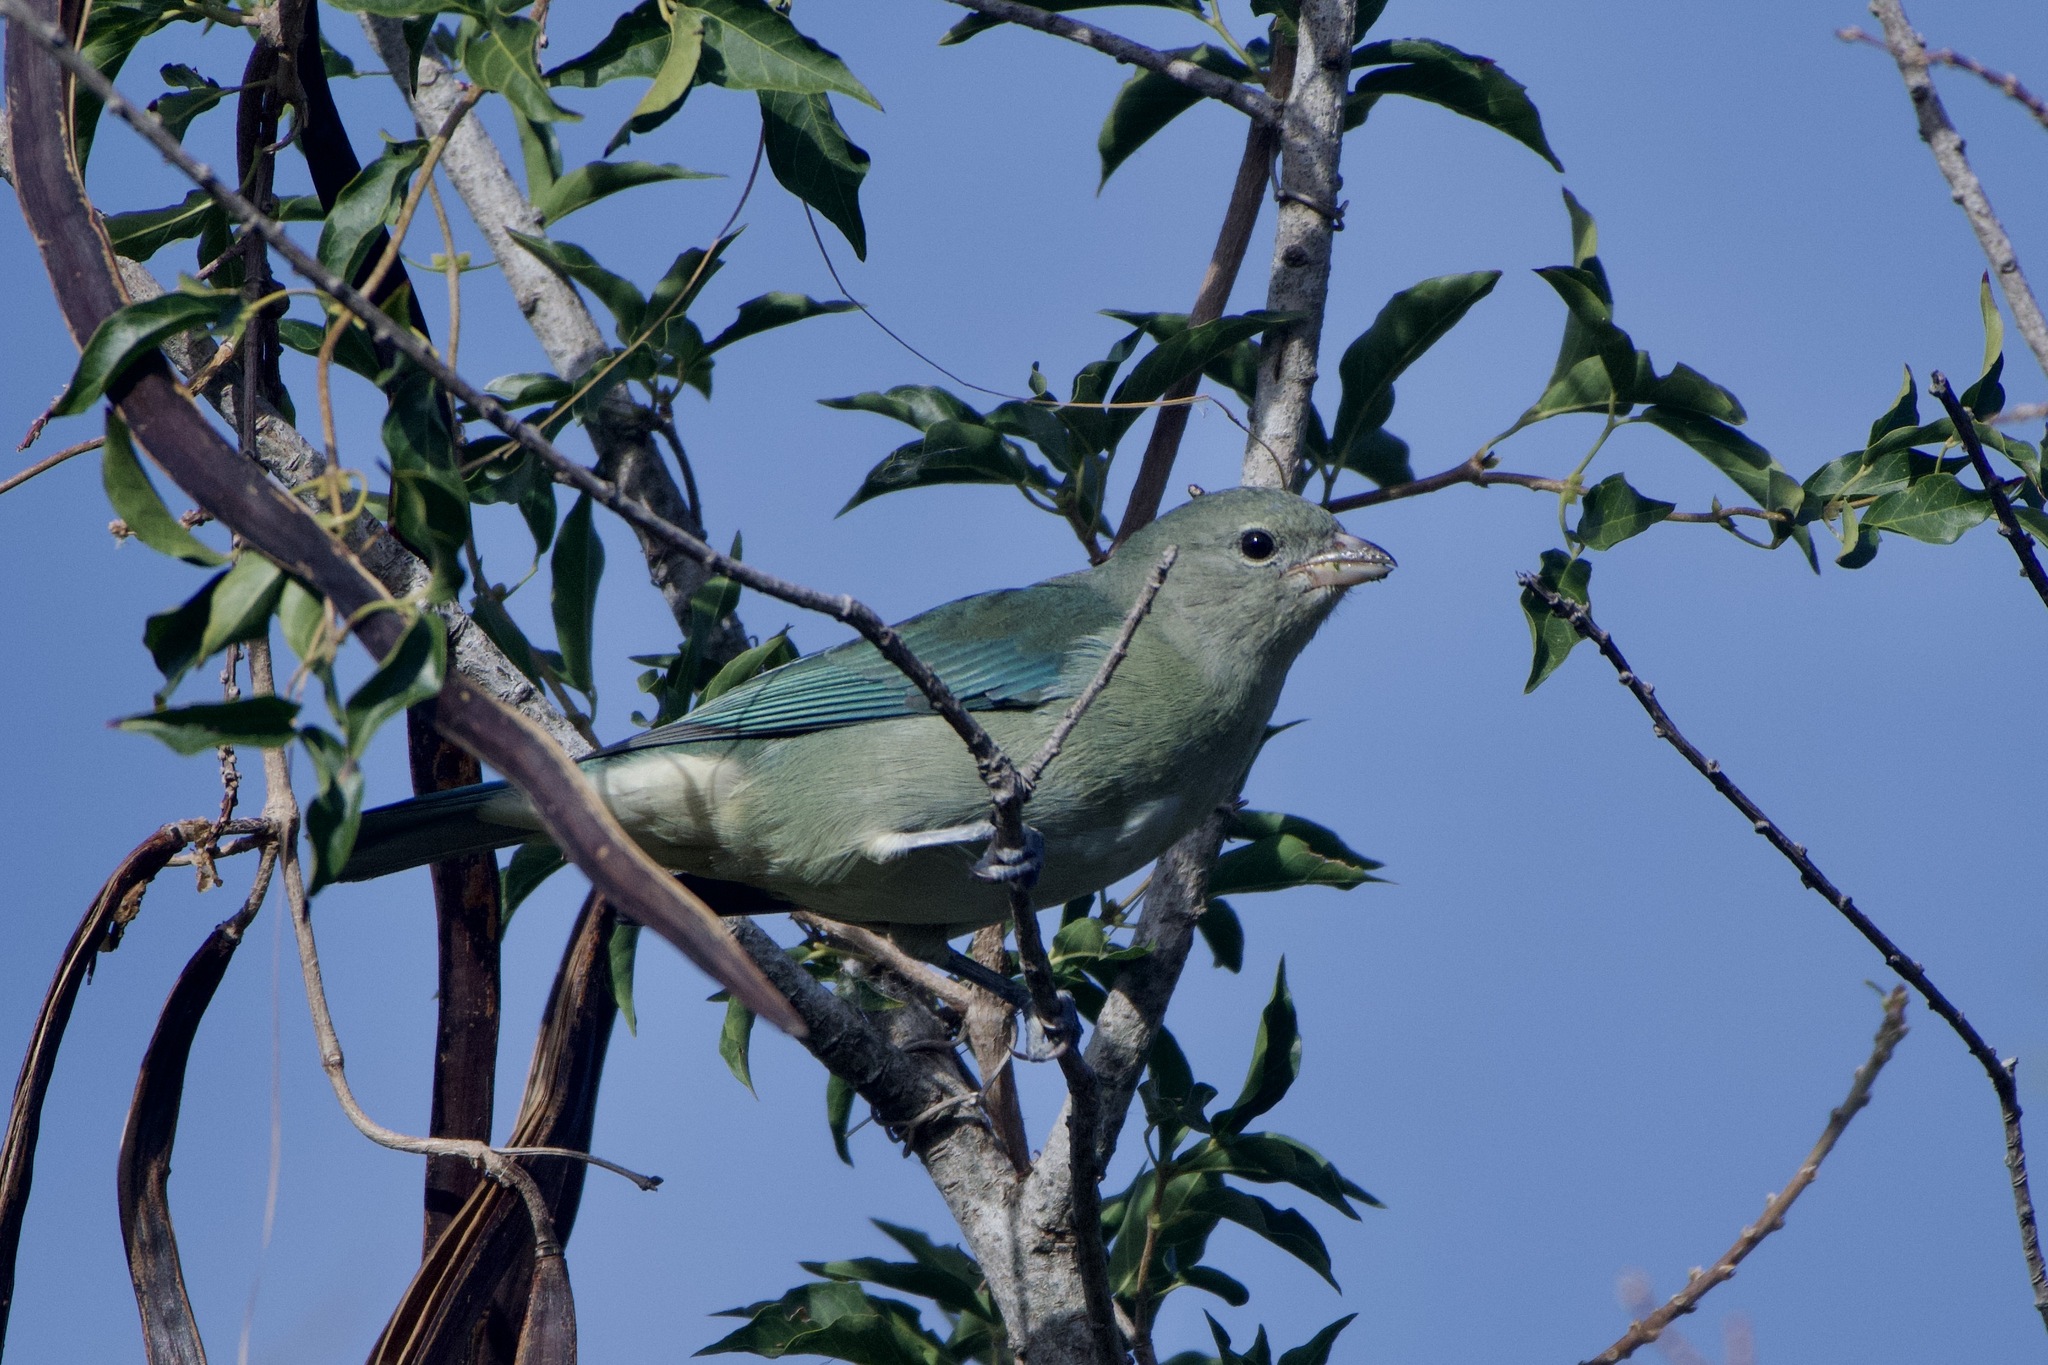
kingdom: Animalia
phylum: Chordata
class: Aves
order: Passeriformes
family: Thraupidae
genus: Thraupis
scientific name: Thraupis sayaca
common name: Sayaca tanager
